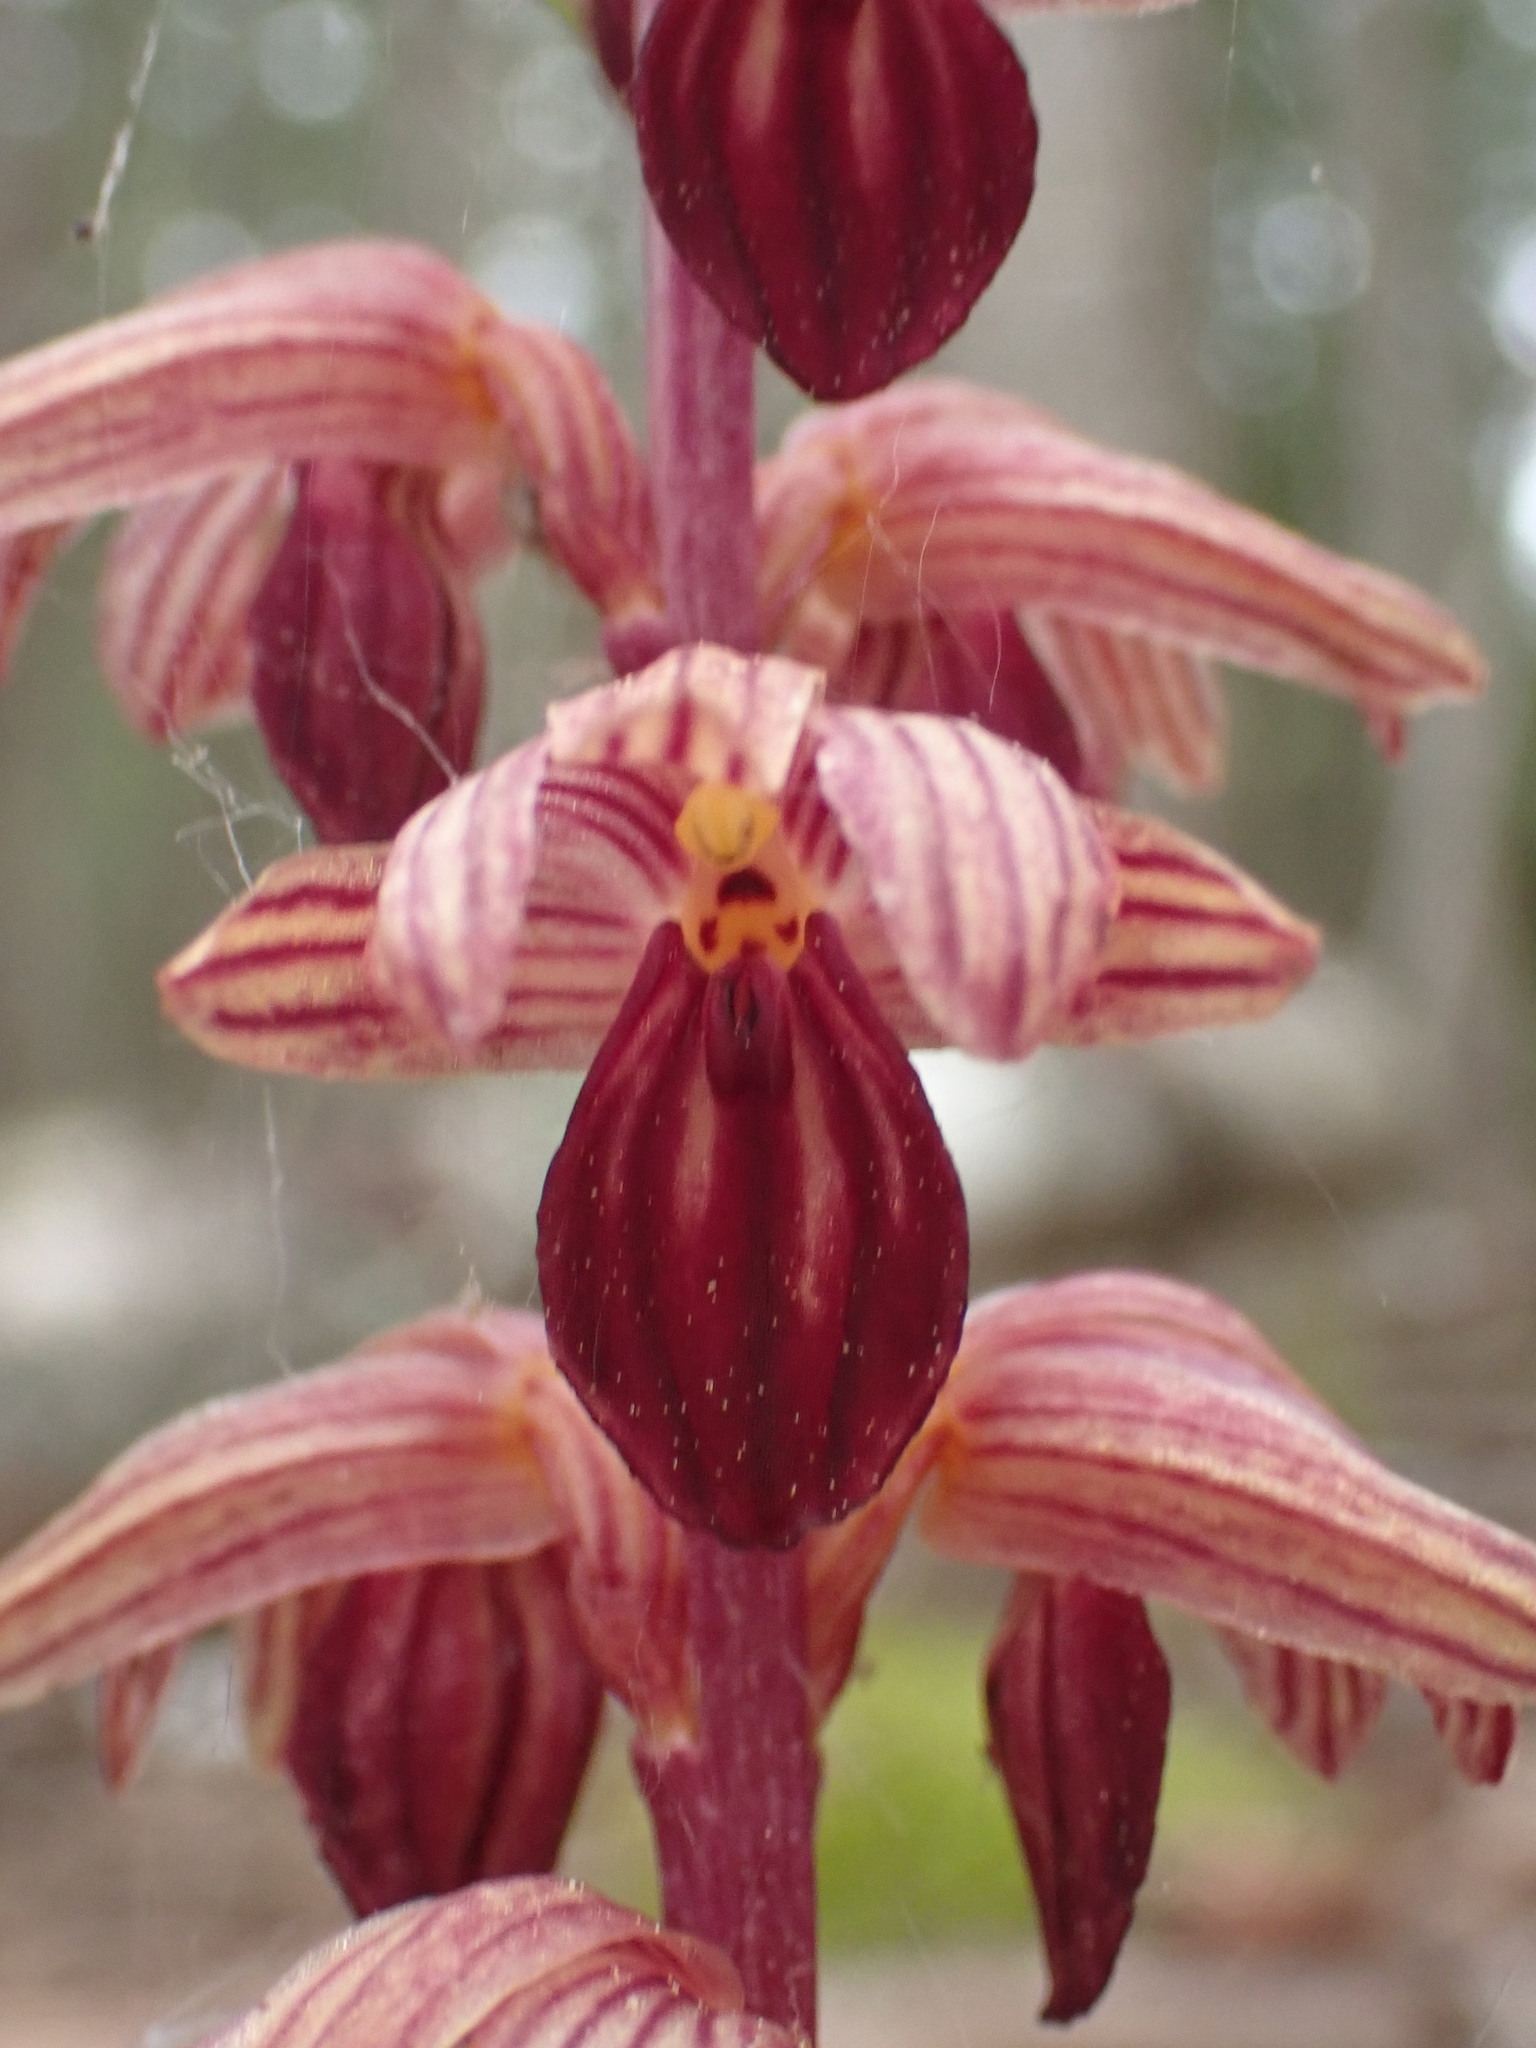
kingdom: Plantae
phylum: Tracheophyta
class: Liliopsida
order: Asparagales
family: Orchidaceae
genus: Corallorhiza
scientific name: Corallorhiza striata
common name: Hooded coralroot
